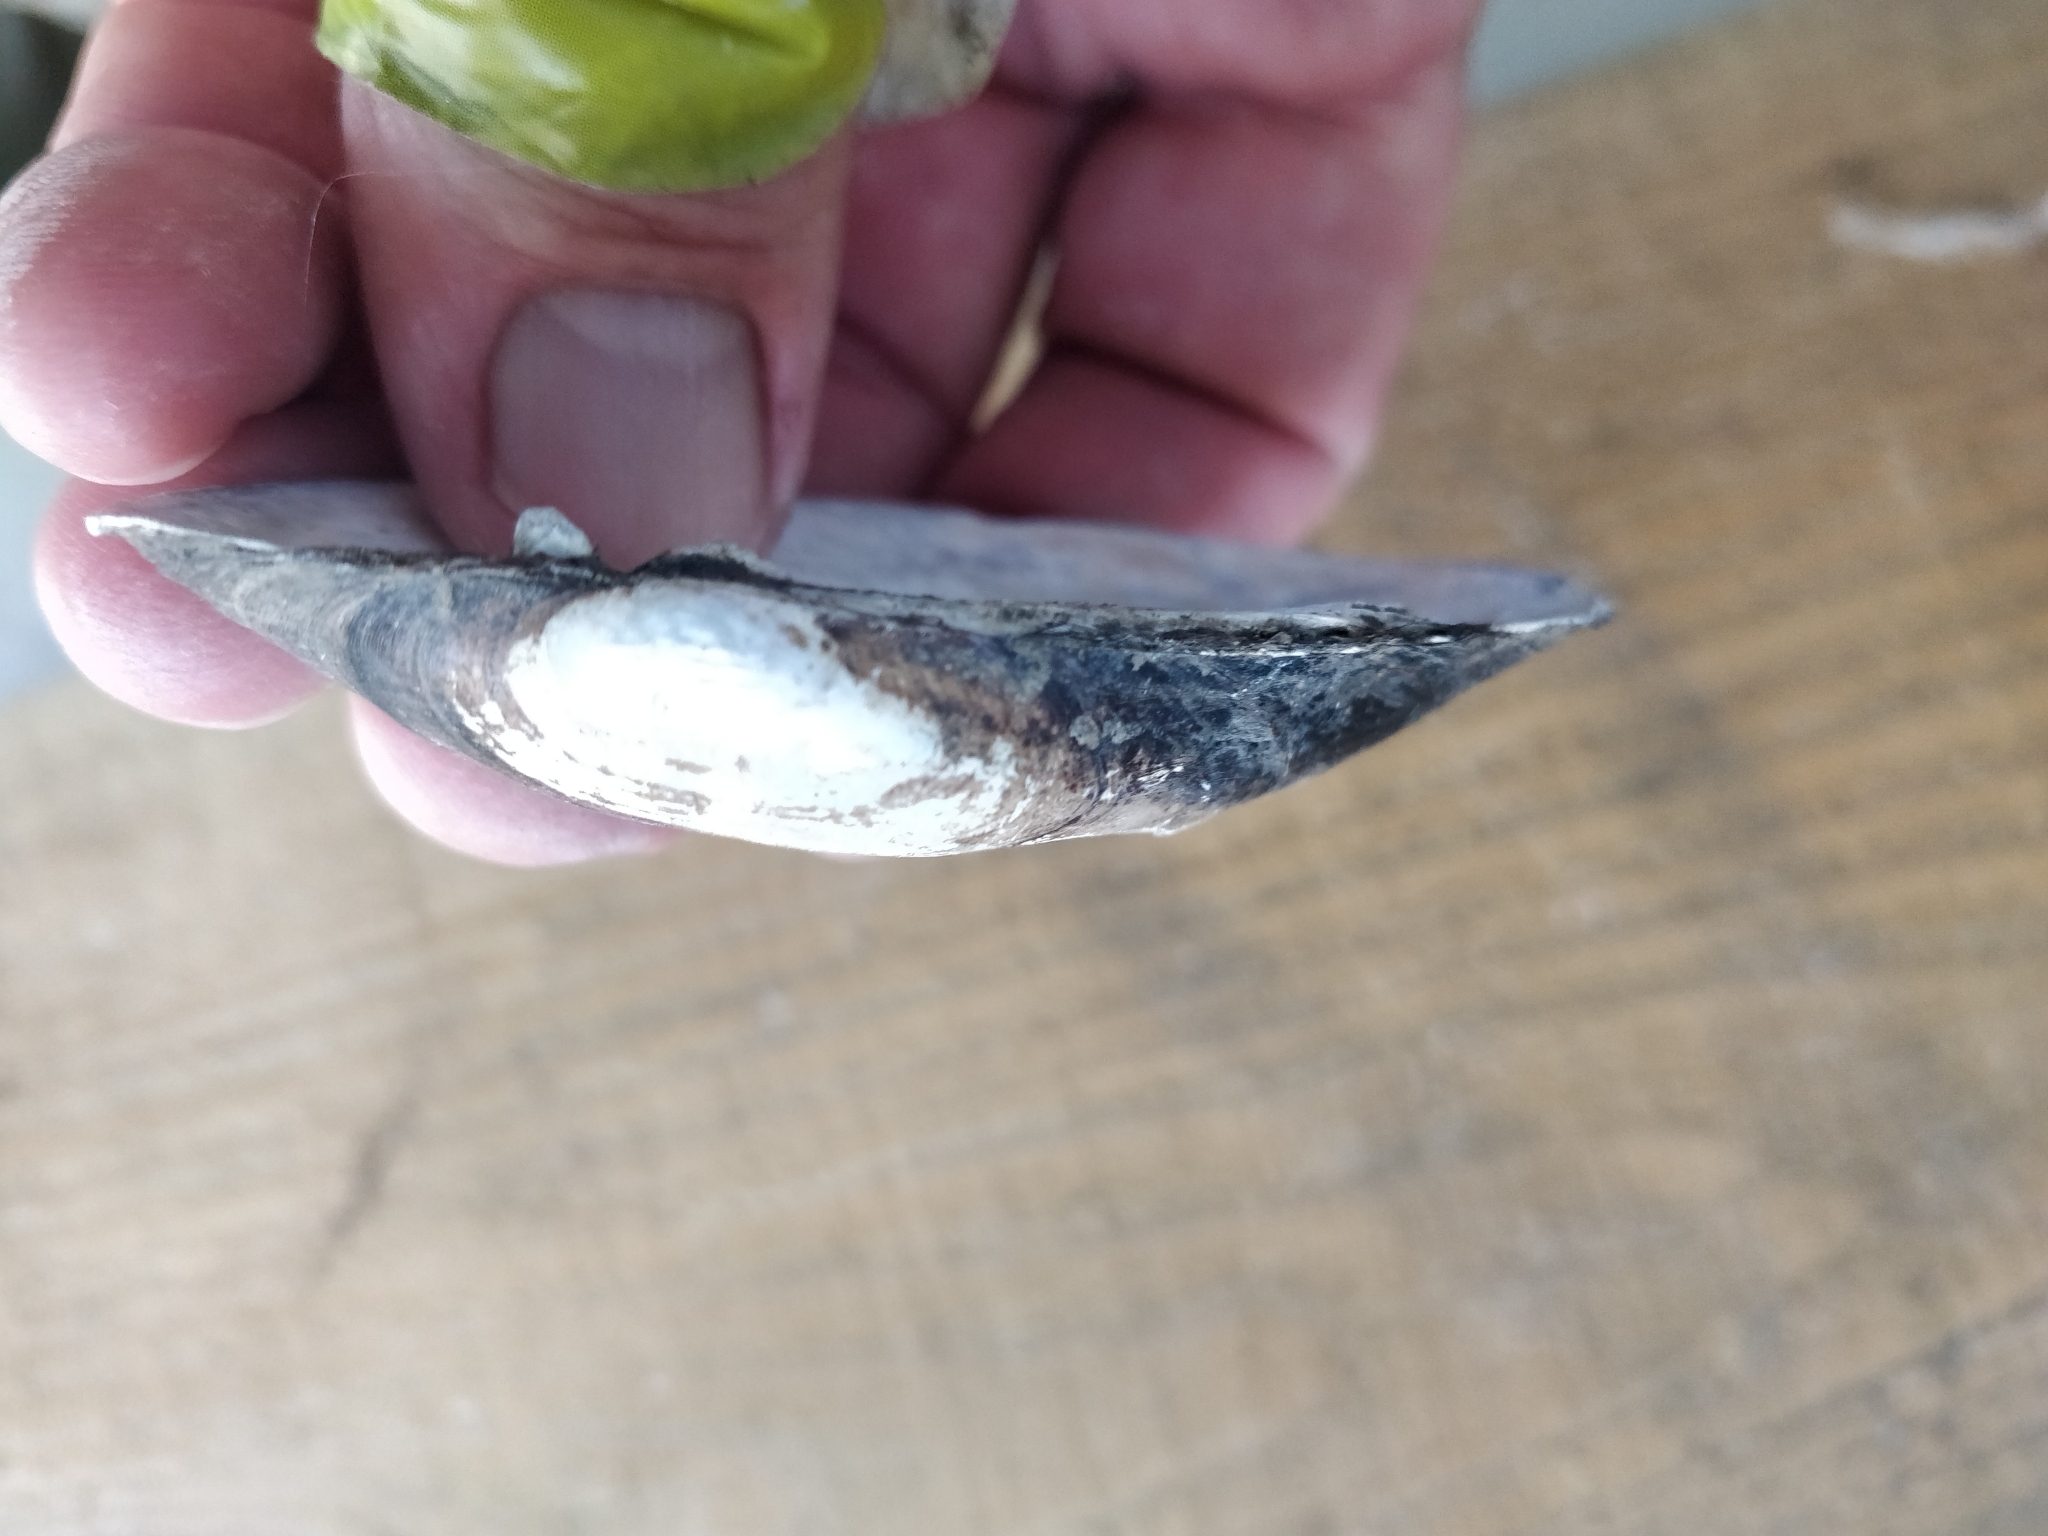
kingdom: Animalia
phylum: Mollusca
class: Bivalvia
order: Unionida
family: Unionidae
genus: Lampsilis
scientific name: Lampsilis siliquoidea
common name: Fatmucket
